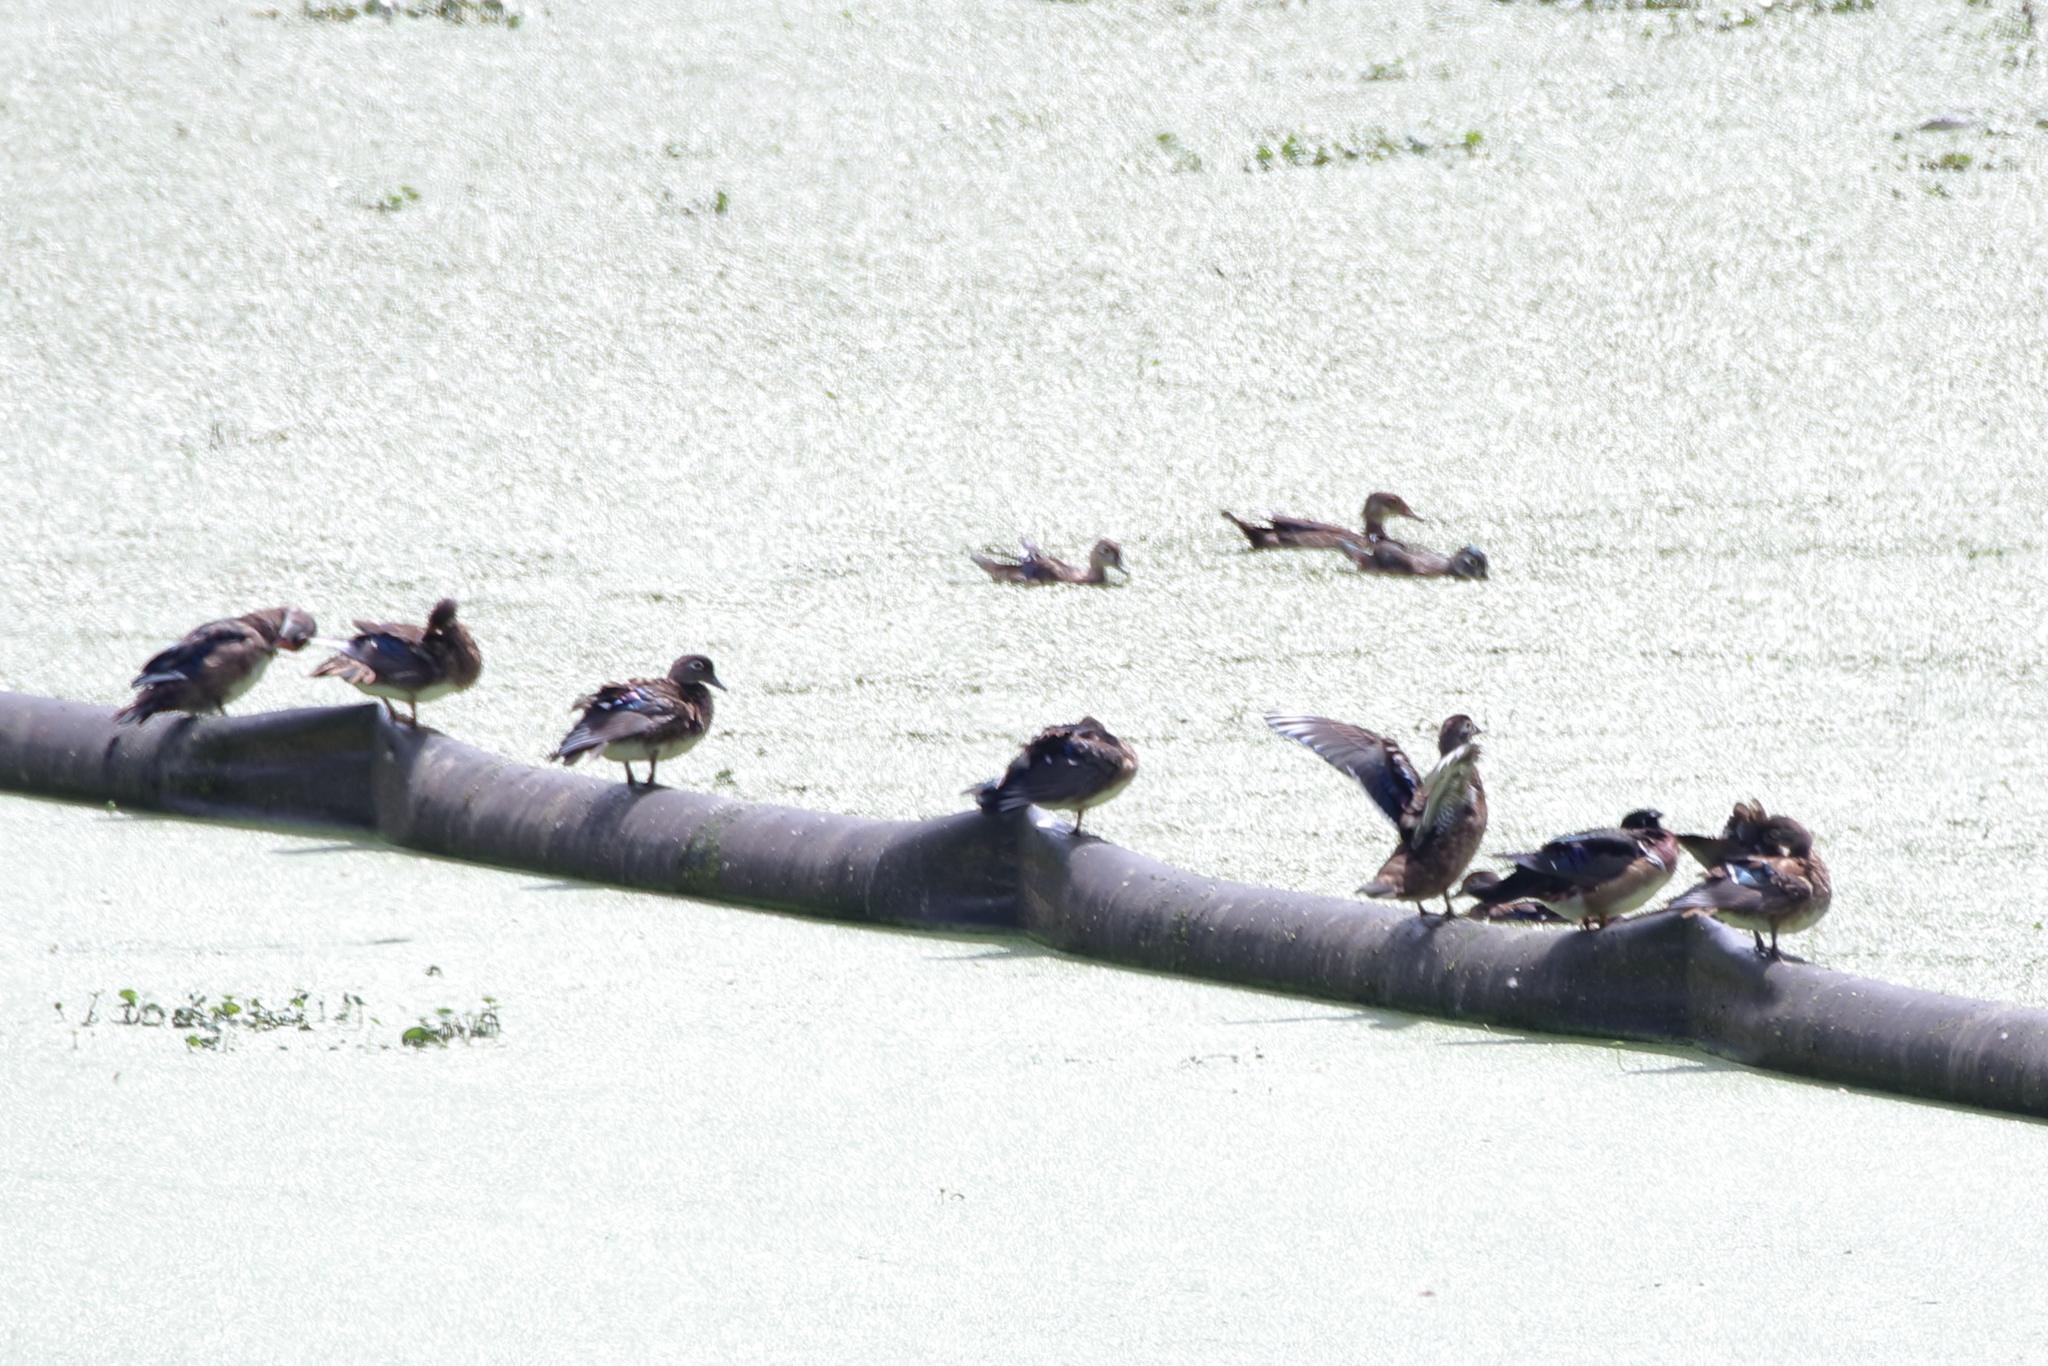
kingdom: Animalia
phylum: Chordata
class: Aves
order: Anseriformes
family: Anatidae
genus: Aix
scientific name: Aix sponsa
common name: Wood duck
